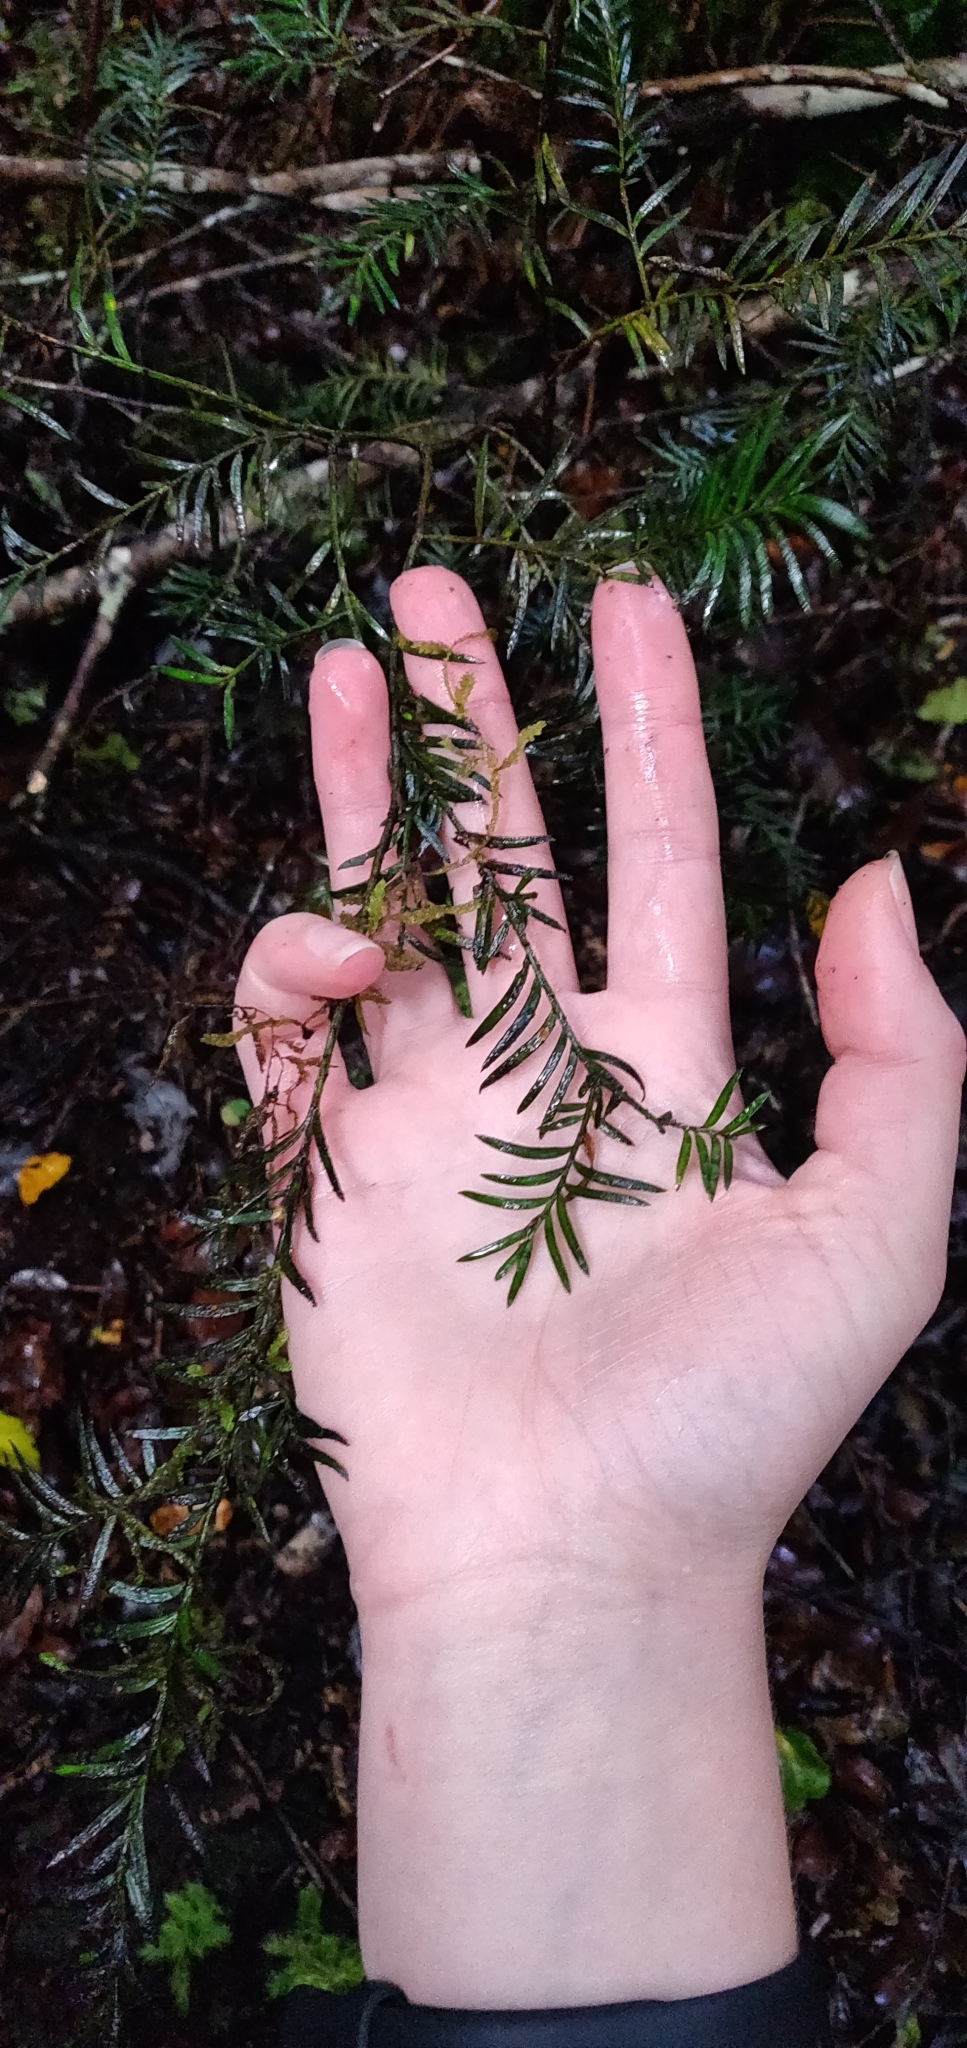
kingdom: Plantae
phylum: Tracheophyta
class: Pinopsida
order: Pinales
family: Podocarpaceae
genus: Prumnopitys
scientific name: Prumnopitys ferruginea
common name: Brown pine
